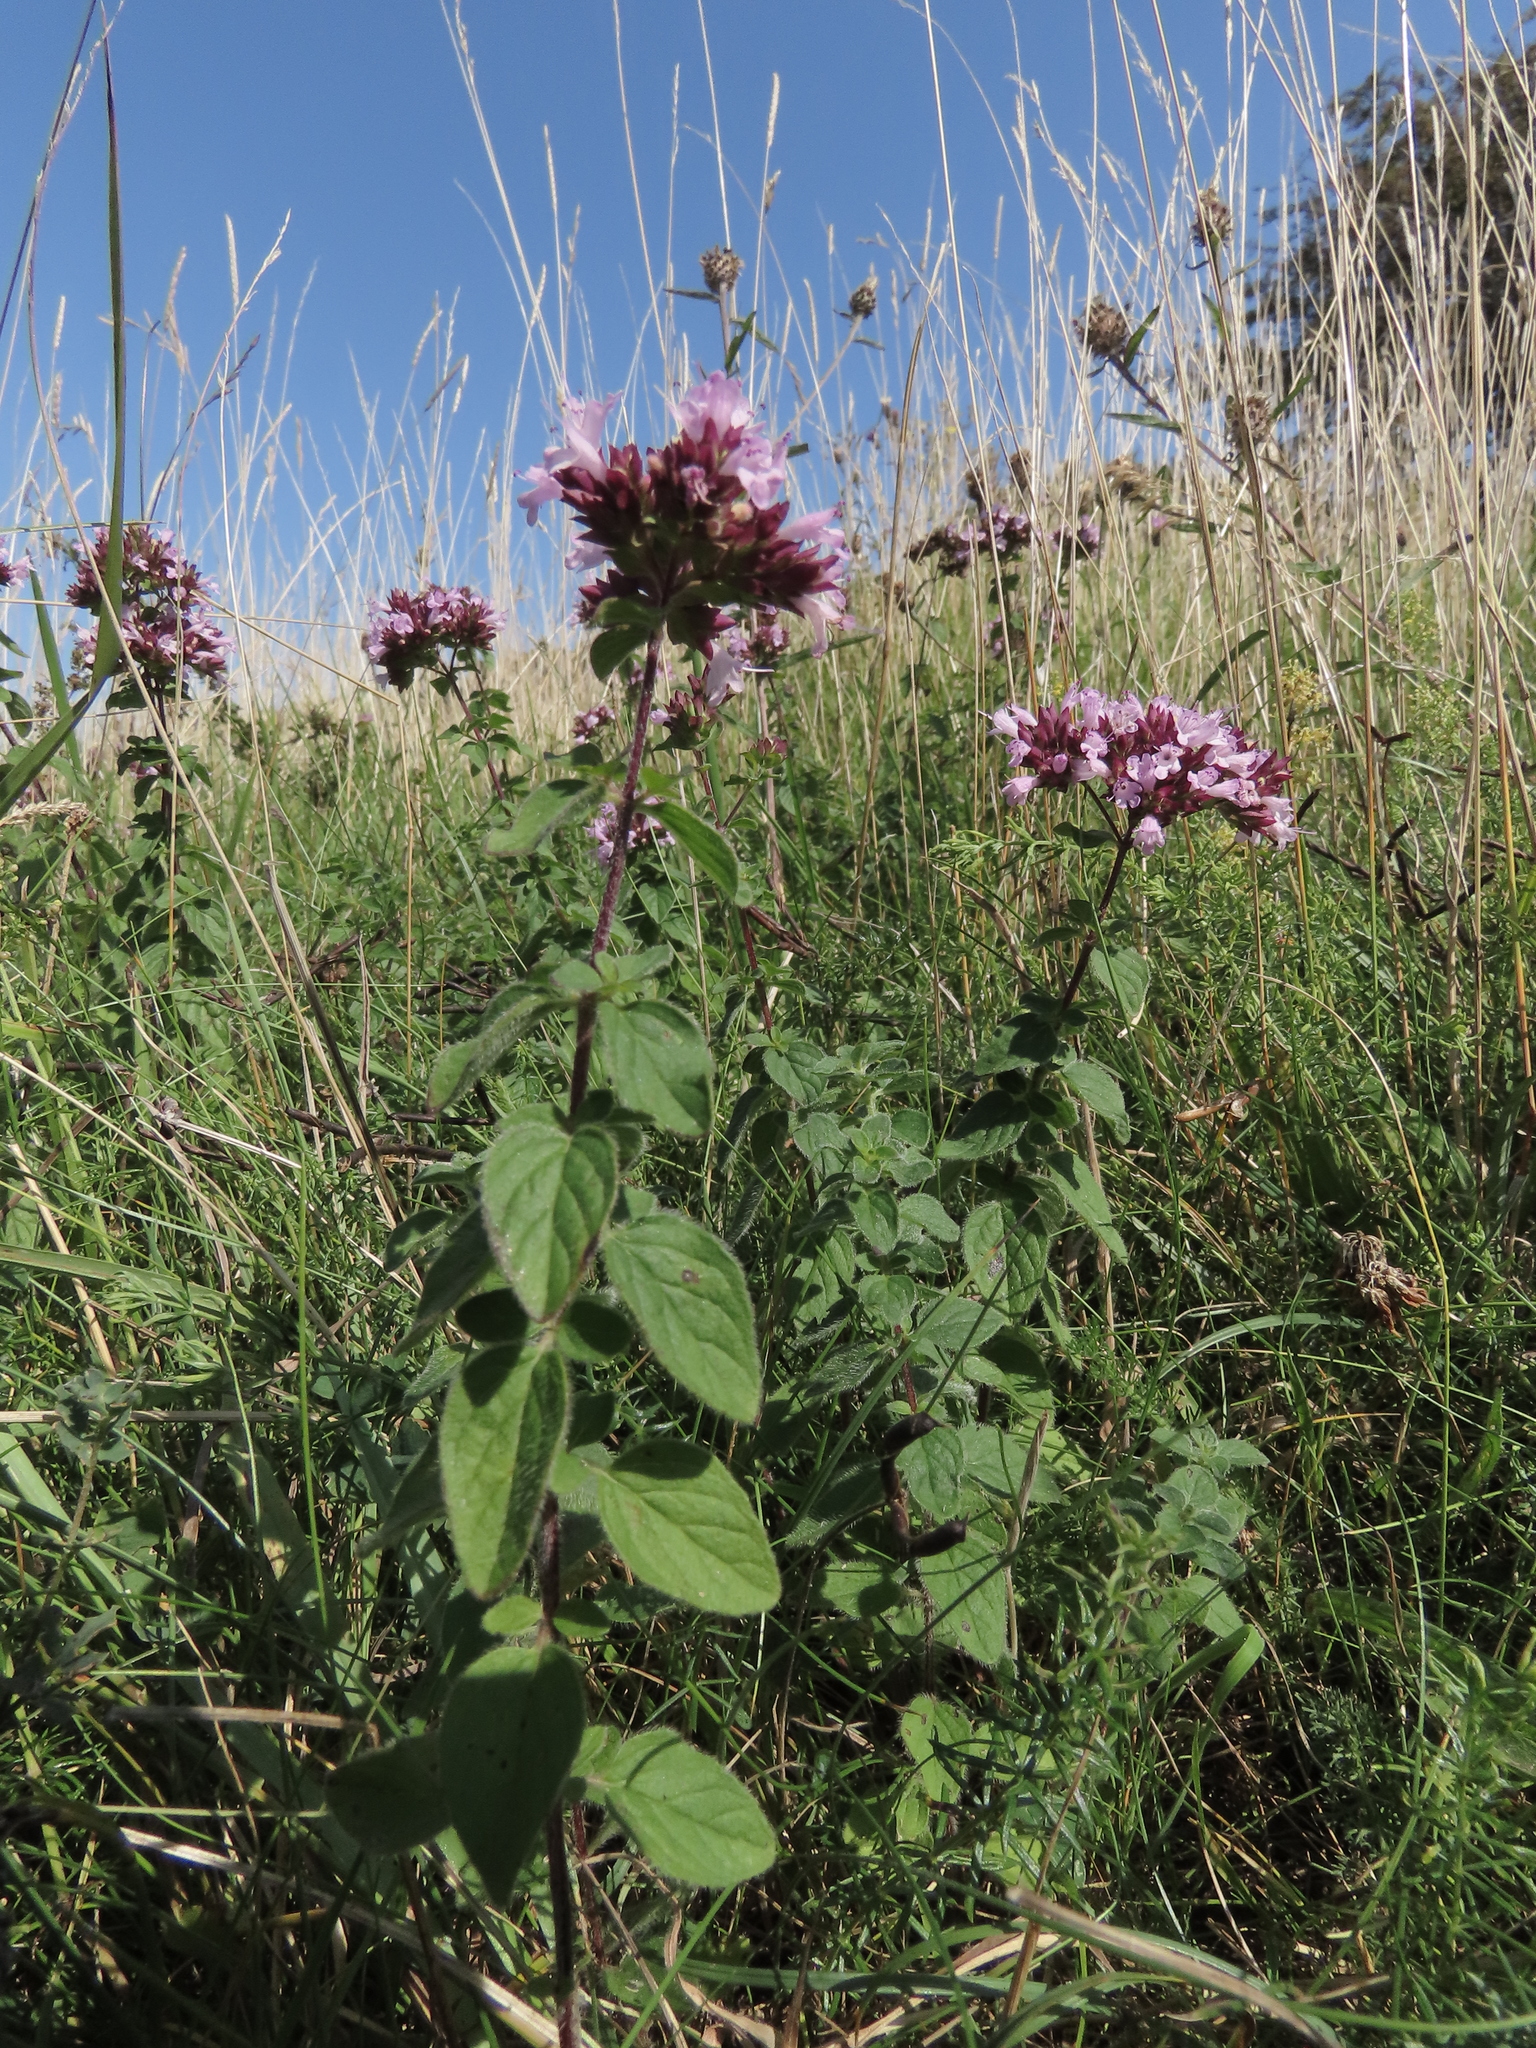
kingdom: Plantae
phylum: Tracheophyta
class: Magnoliopsida
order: Lamiales
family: Lamiaceae
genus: Origanum
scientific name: Origanum vulgare
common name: Wild marjoram
